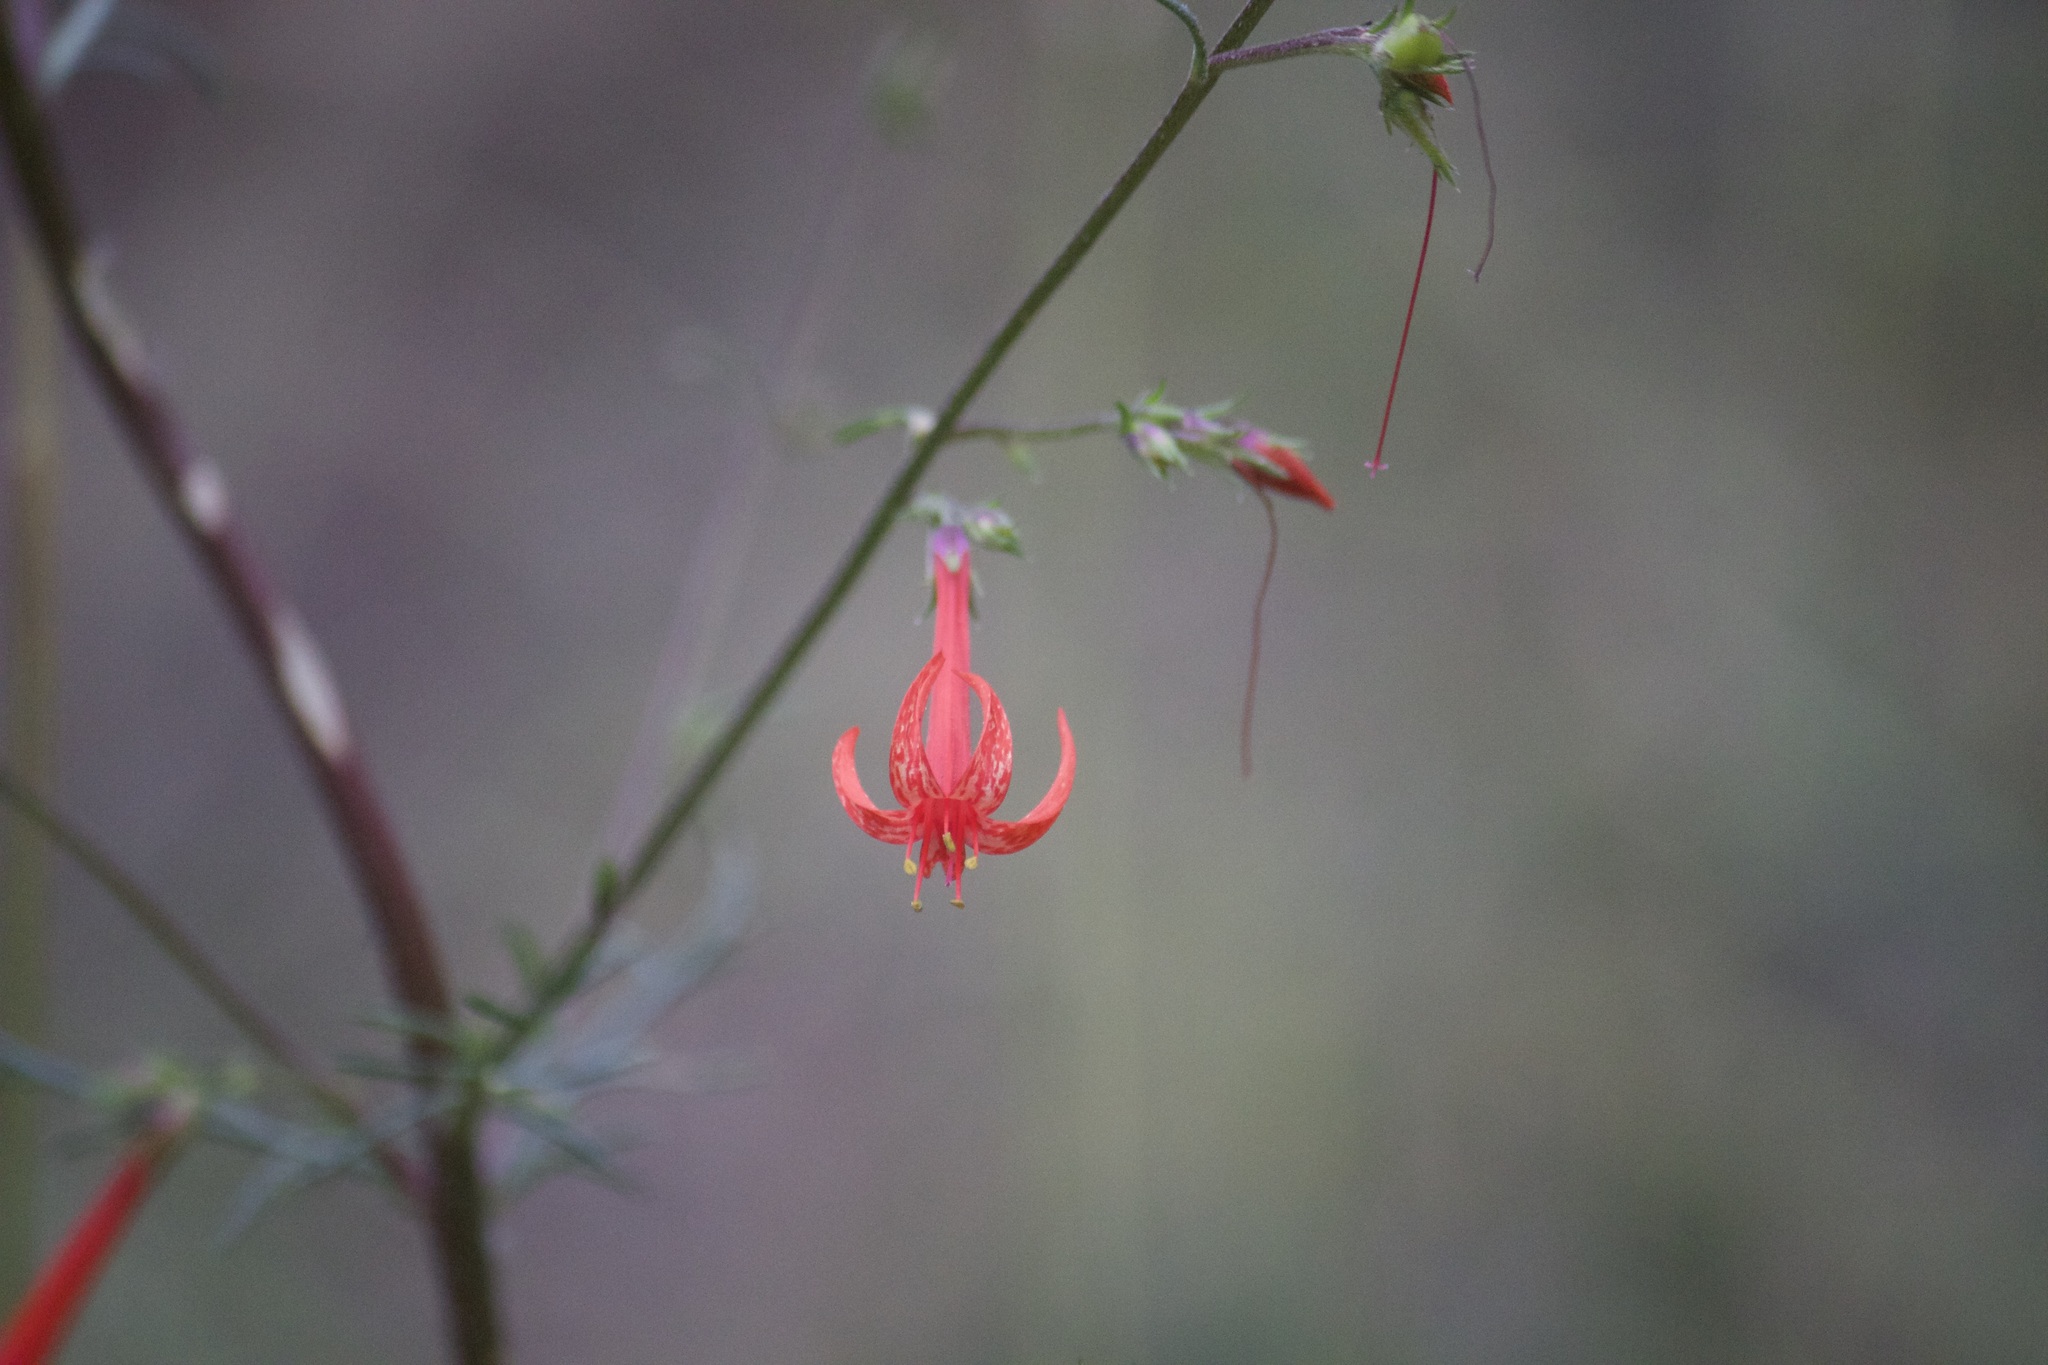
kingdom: Plantae
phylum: Tracheophyta
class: Magnoliopsida
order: Ericales
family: Polemoniaceae
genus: Ipomopsis
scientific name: Ipomopsis aggregata
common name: Scarlet gilia
